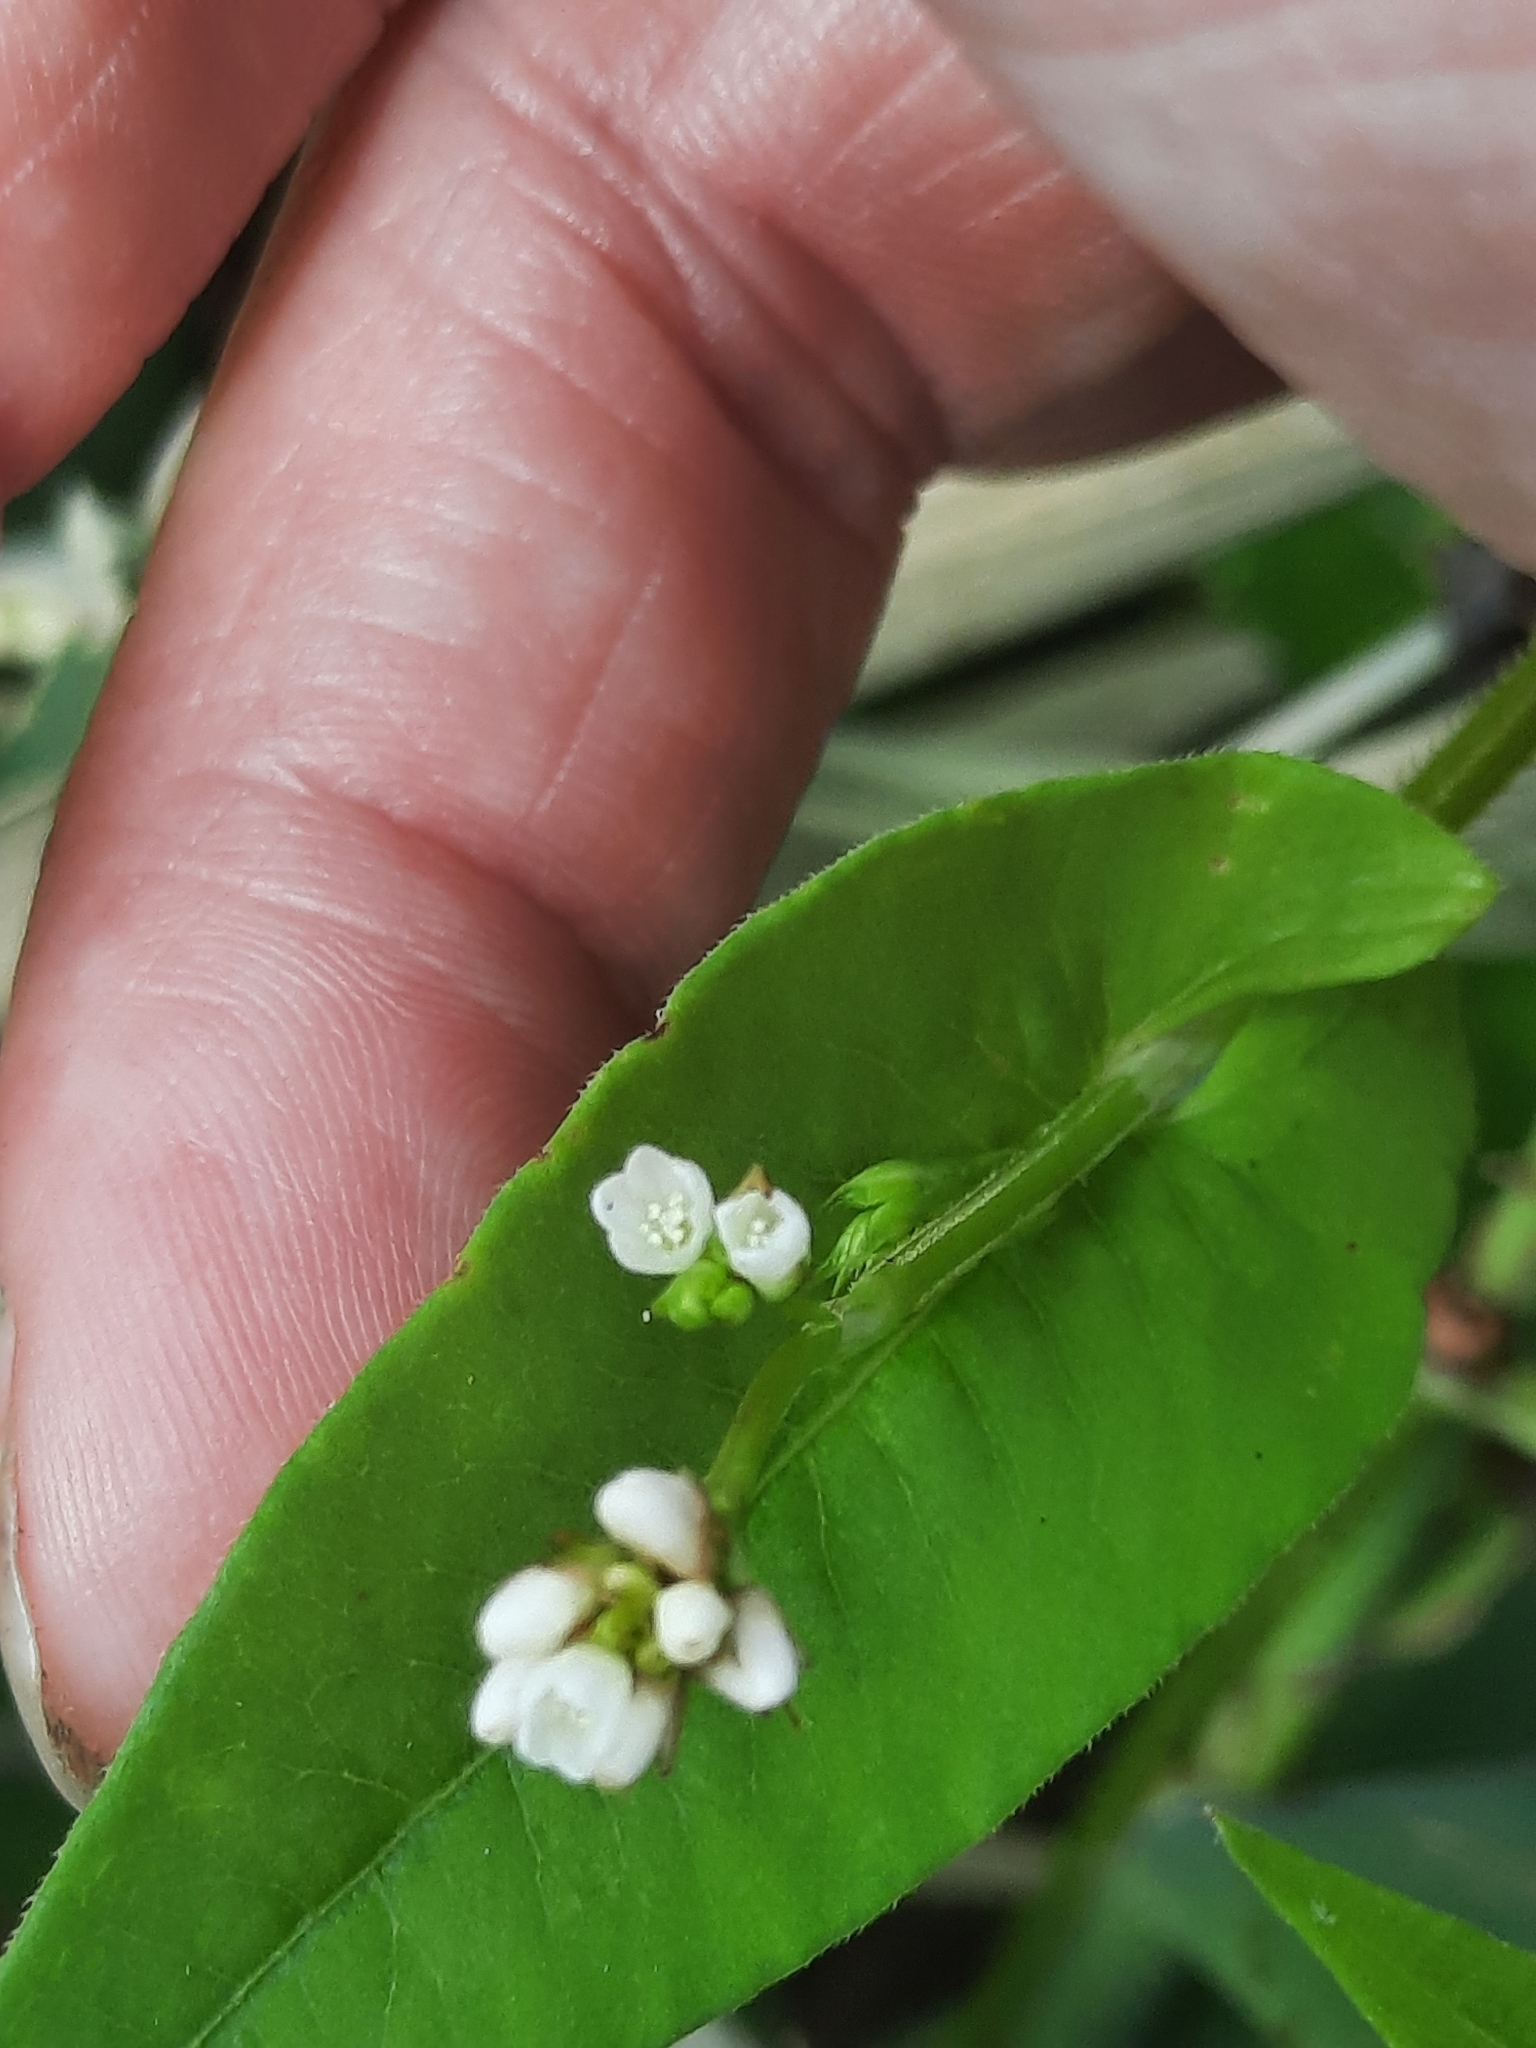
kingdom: Plantae
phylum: Tracheophyta
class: Magnoliopsida
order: Caryophyllales
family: Polygonaceae
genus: Persicaria
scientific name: Persicaria sagittata
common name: American tearthumb
